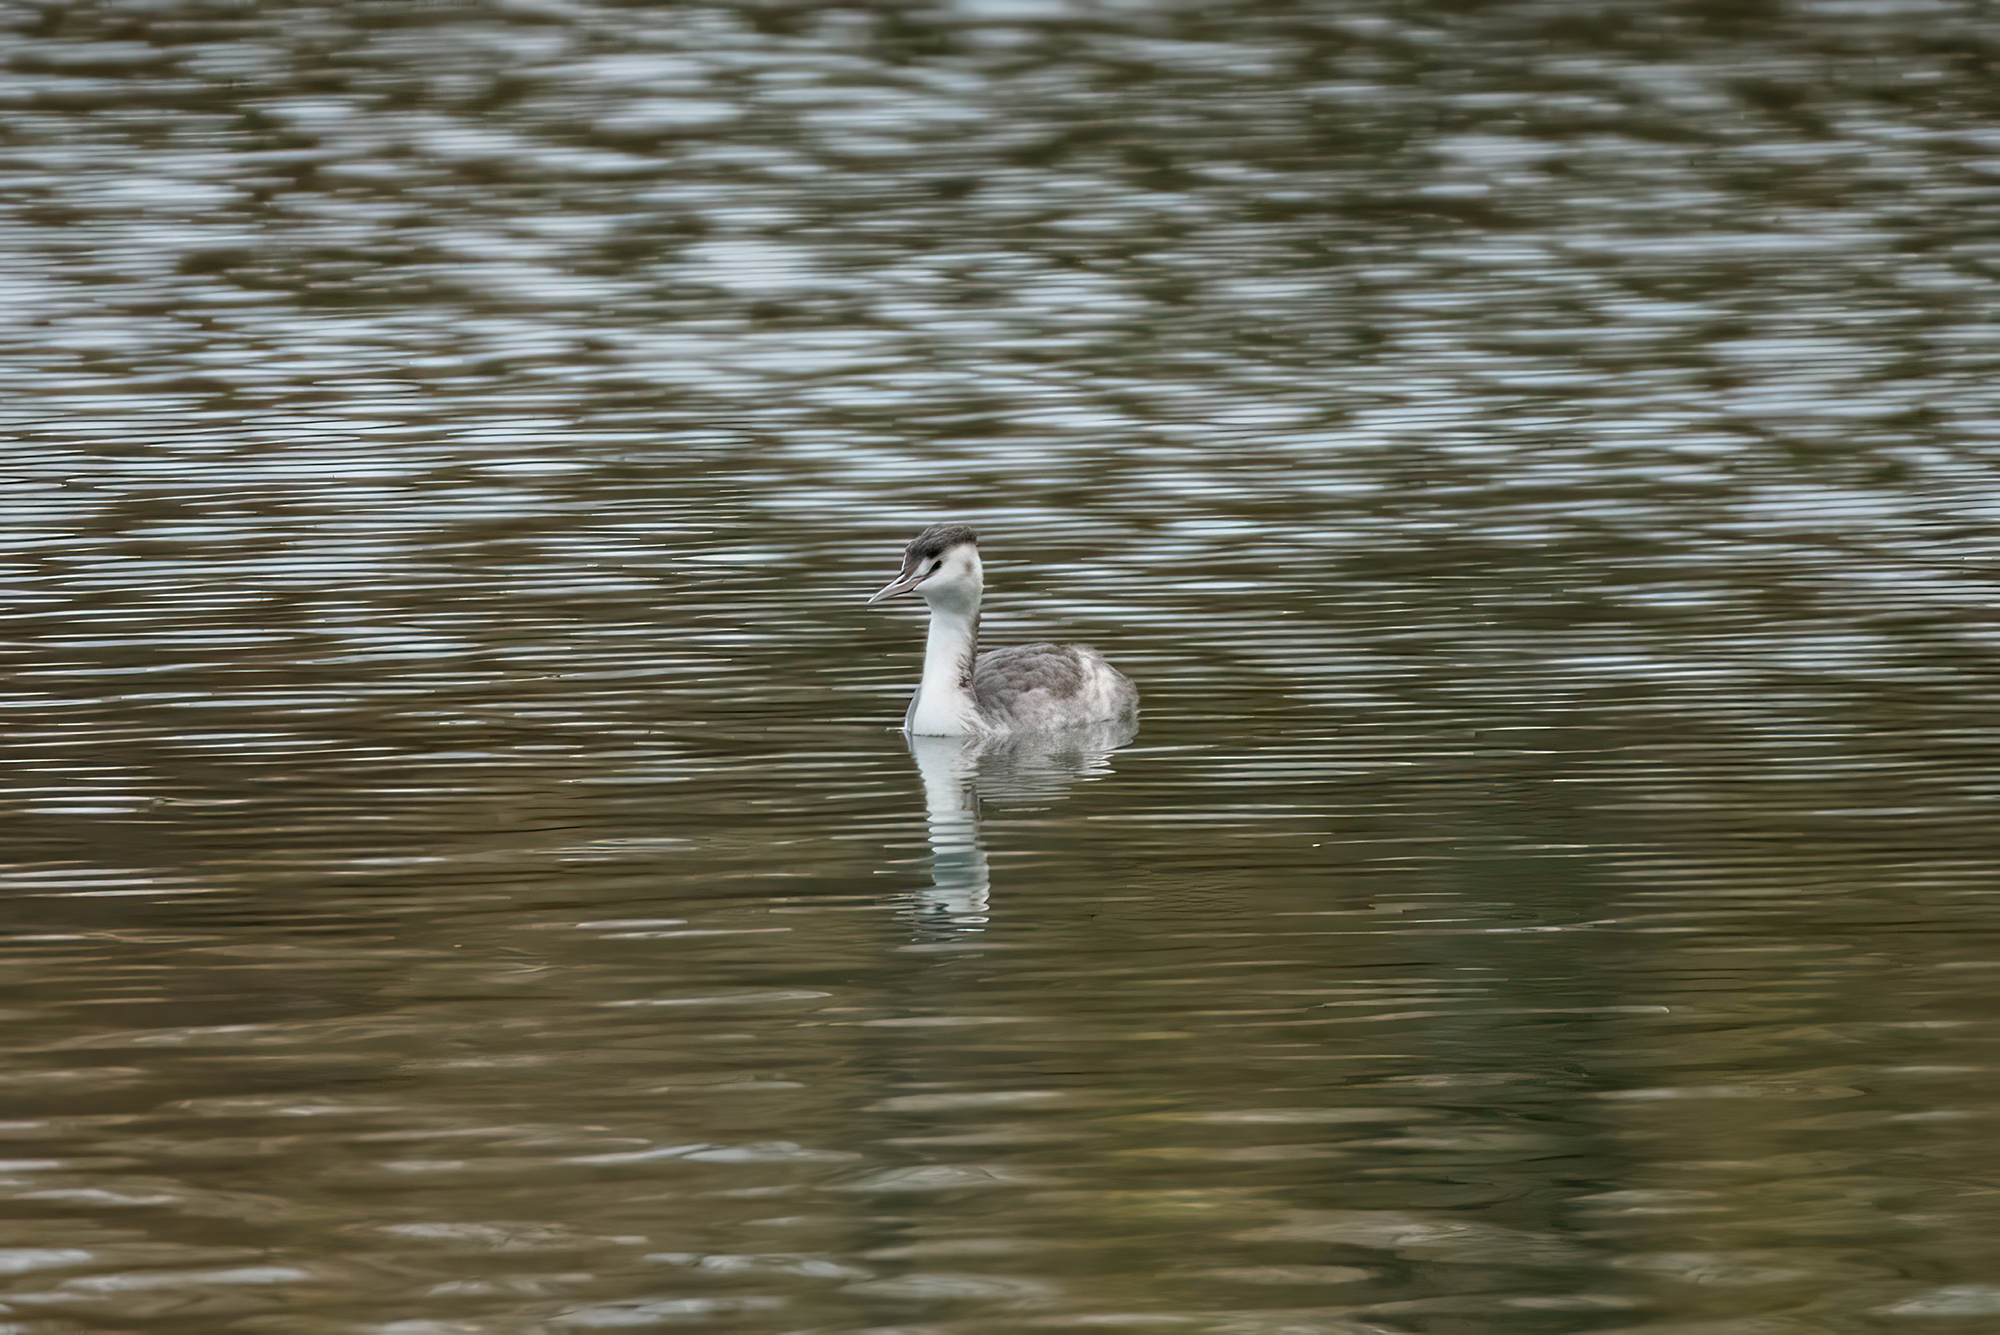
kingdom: Animalia
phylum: Chordata
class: Aves
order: Podicipediformes
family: Podicipedidae
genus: Podiceps
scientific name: Podiceps cristatus
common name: Great crested grebe
